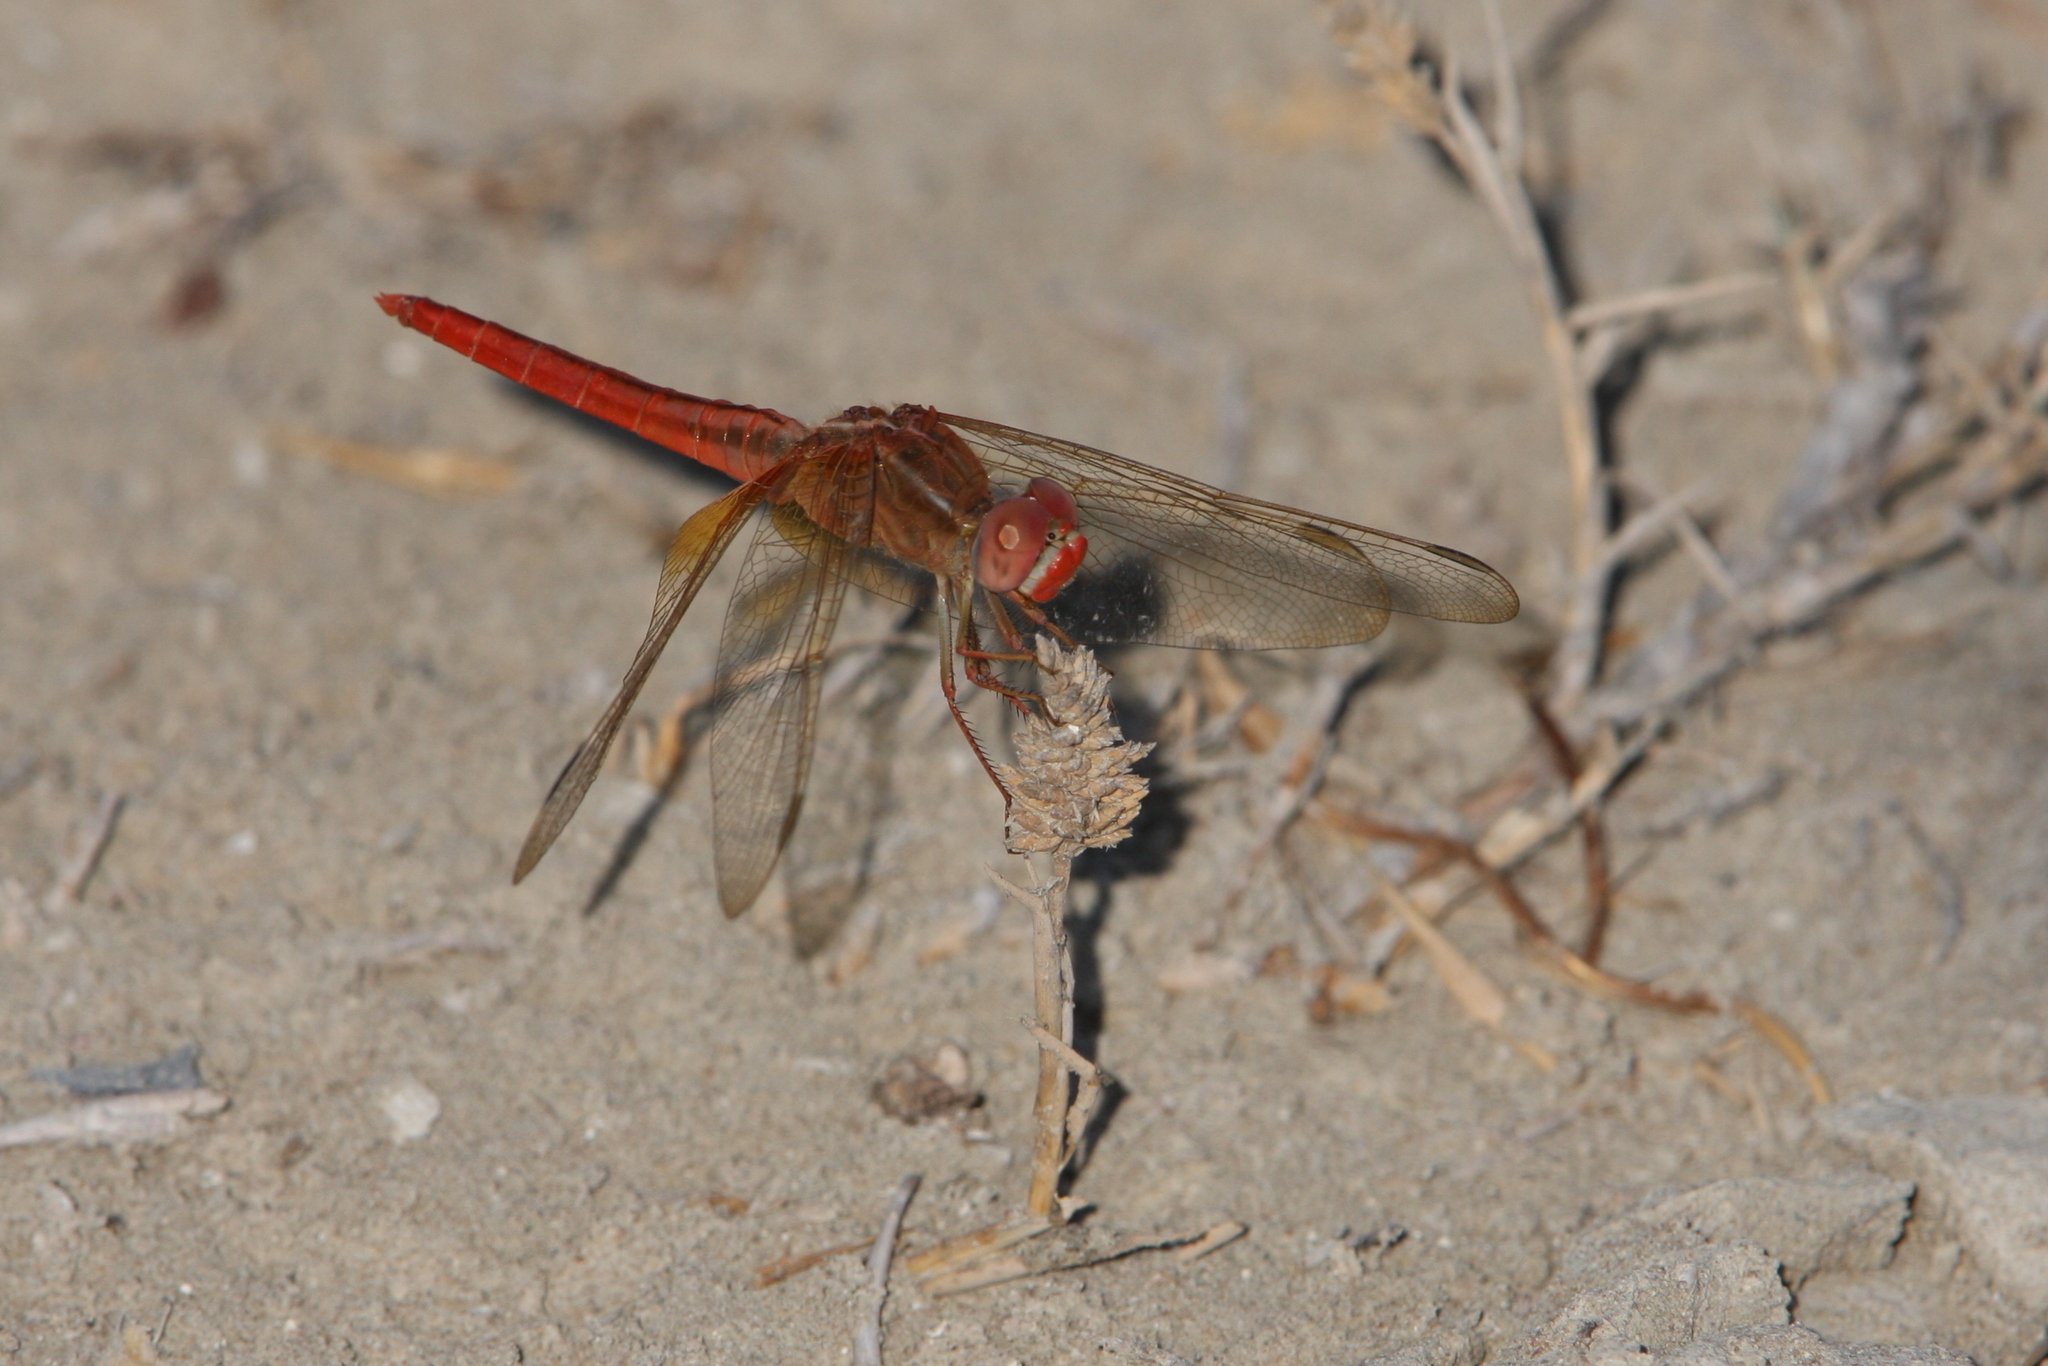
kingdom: Animalia
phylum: Arthropoda
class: Insecta
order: Odonata
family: Libellulidae
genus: Crocothemis
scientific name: Crocothemis servilia
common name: Scarlet skimmer
